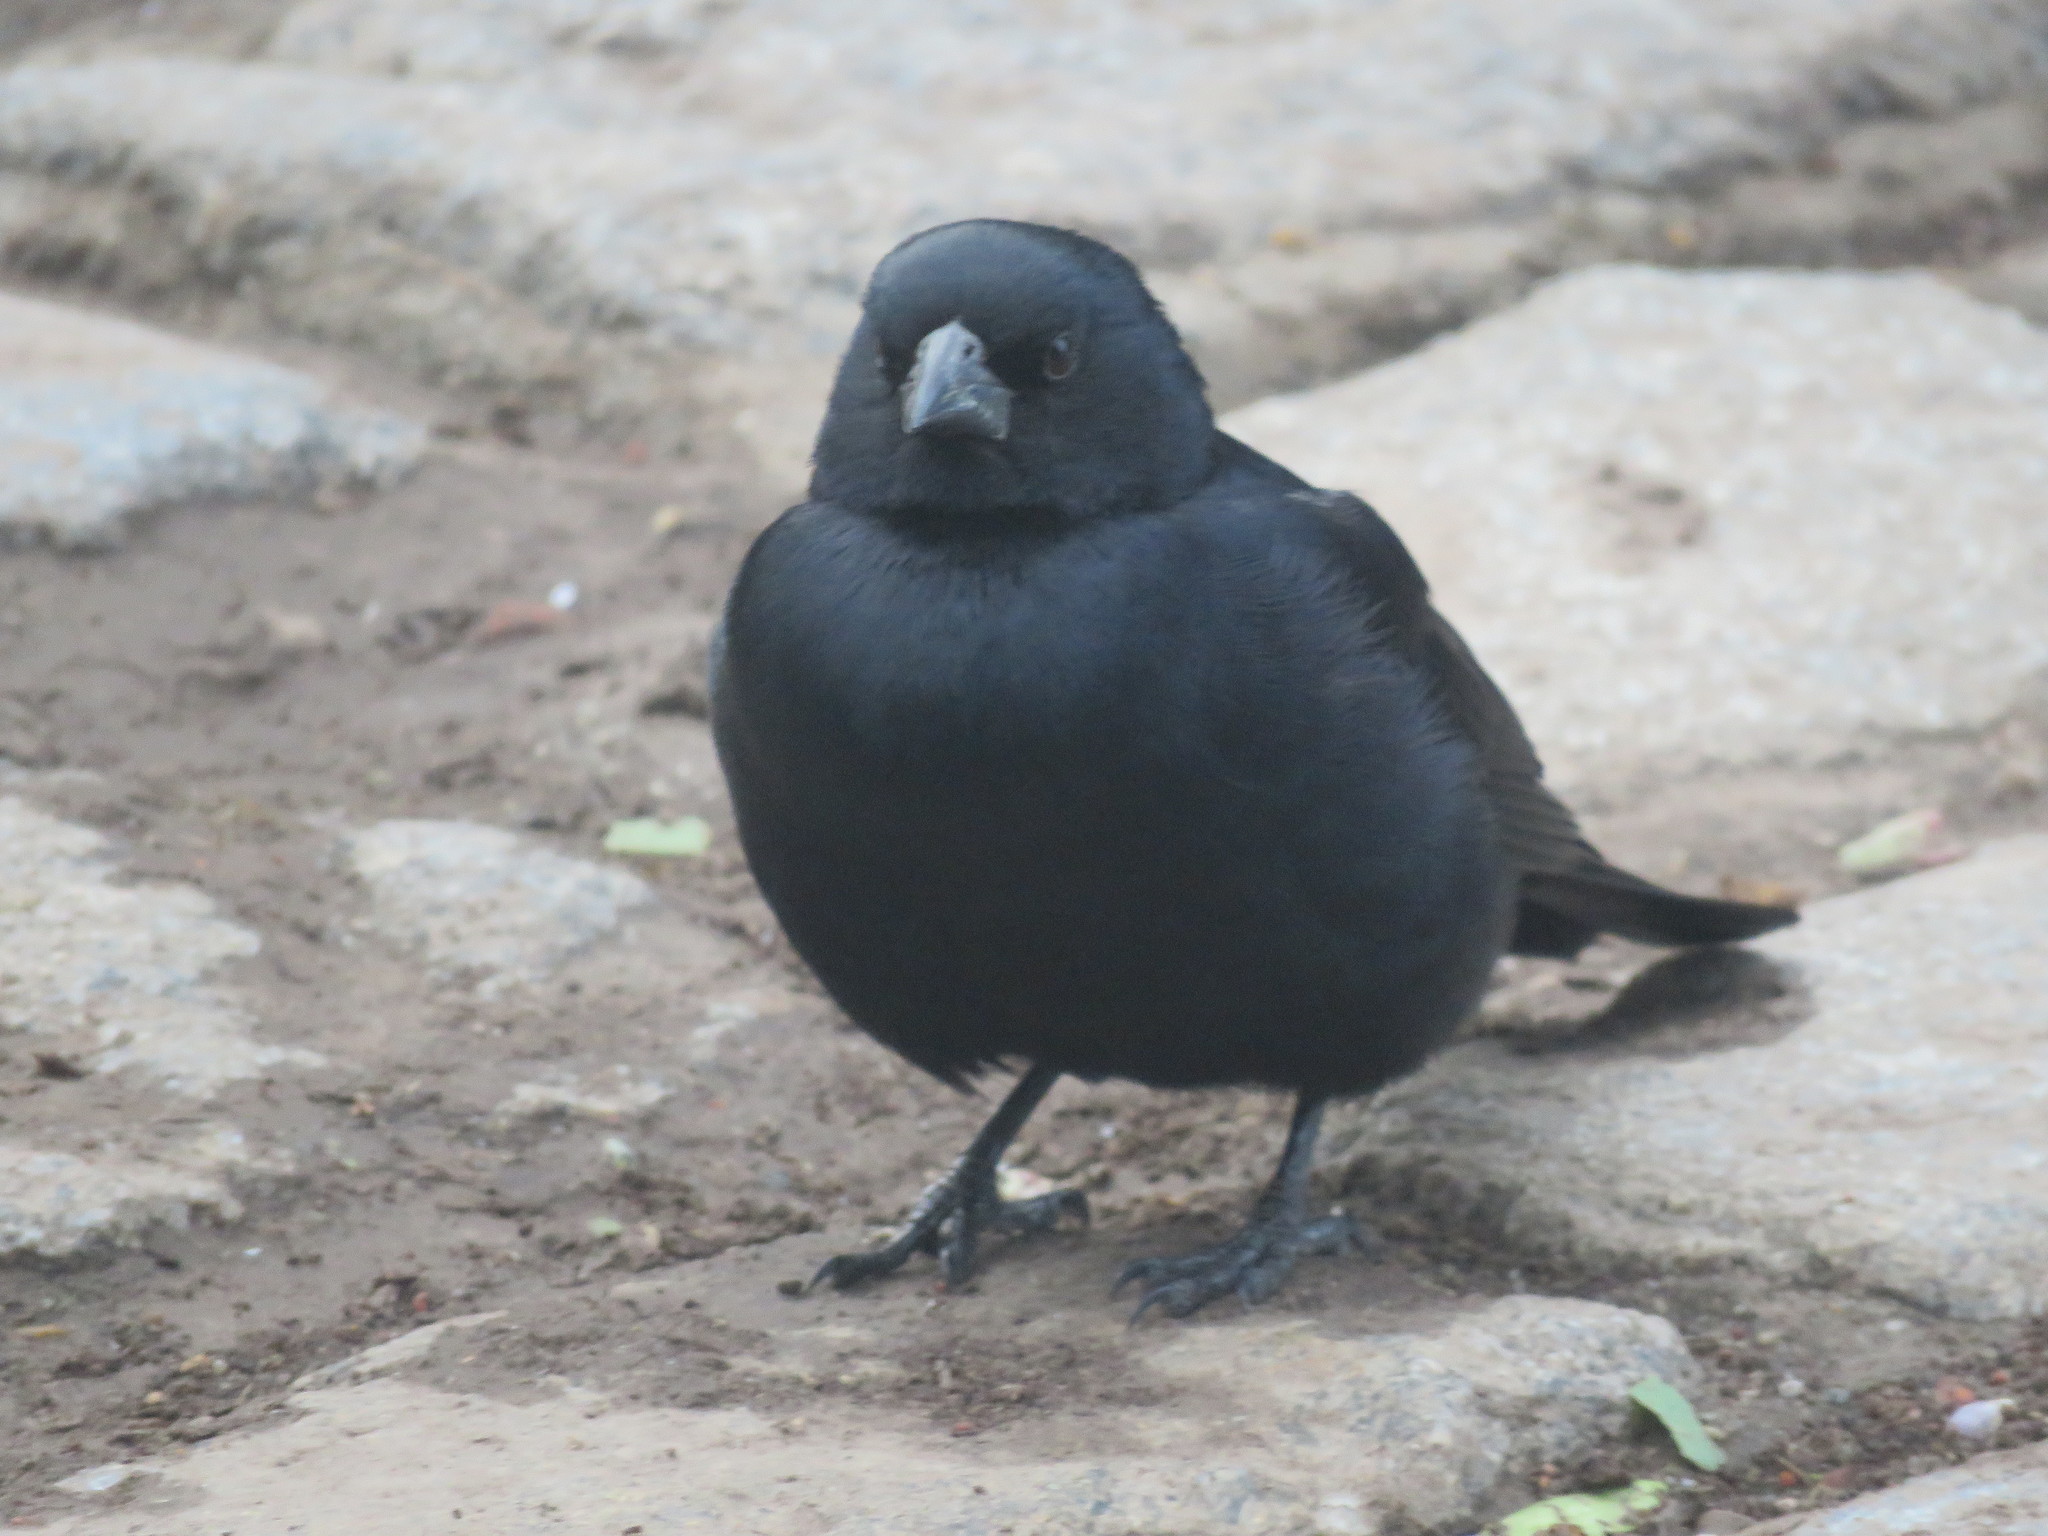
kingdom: Animalia
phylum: Chordata
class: Aves
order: Passeriformes
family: Icteridae
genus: Molothrus
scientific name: Molothrus rufoaxillaris
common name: Screaming cowbird
